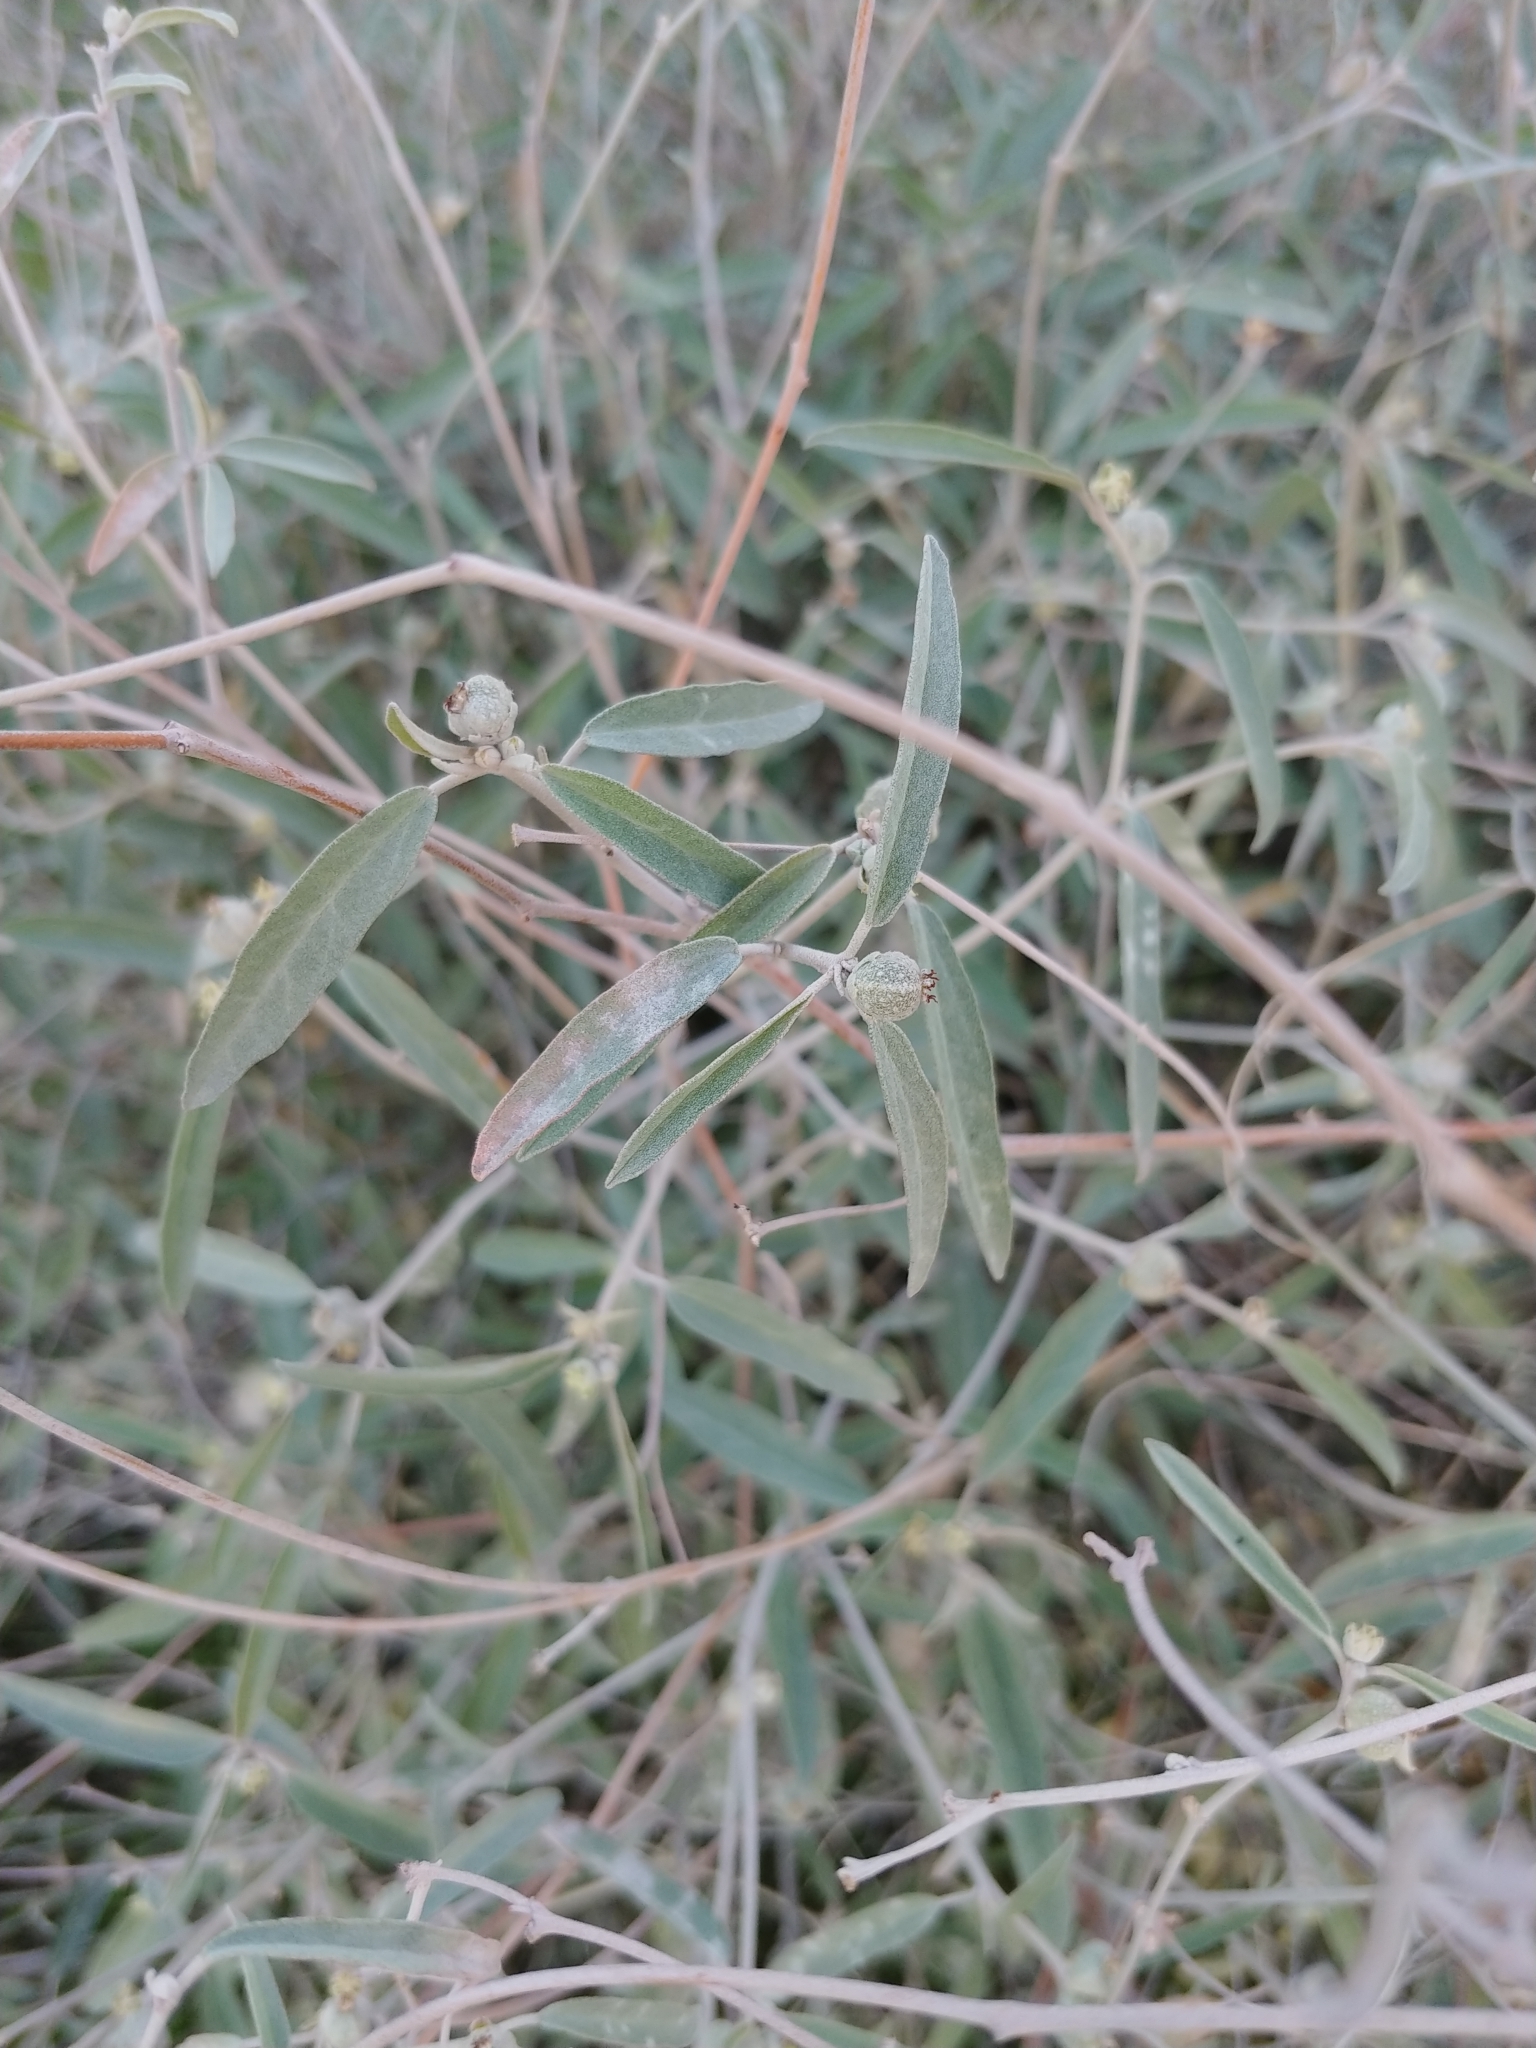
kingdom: Plantae
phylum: Tracheophyta
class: Magnoliopsida
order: Malpighiales
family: Euphorbiaceae
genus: Croton
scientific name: Croton californicus
